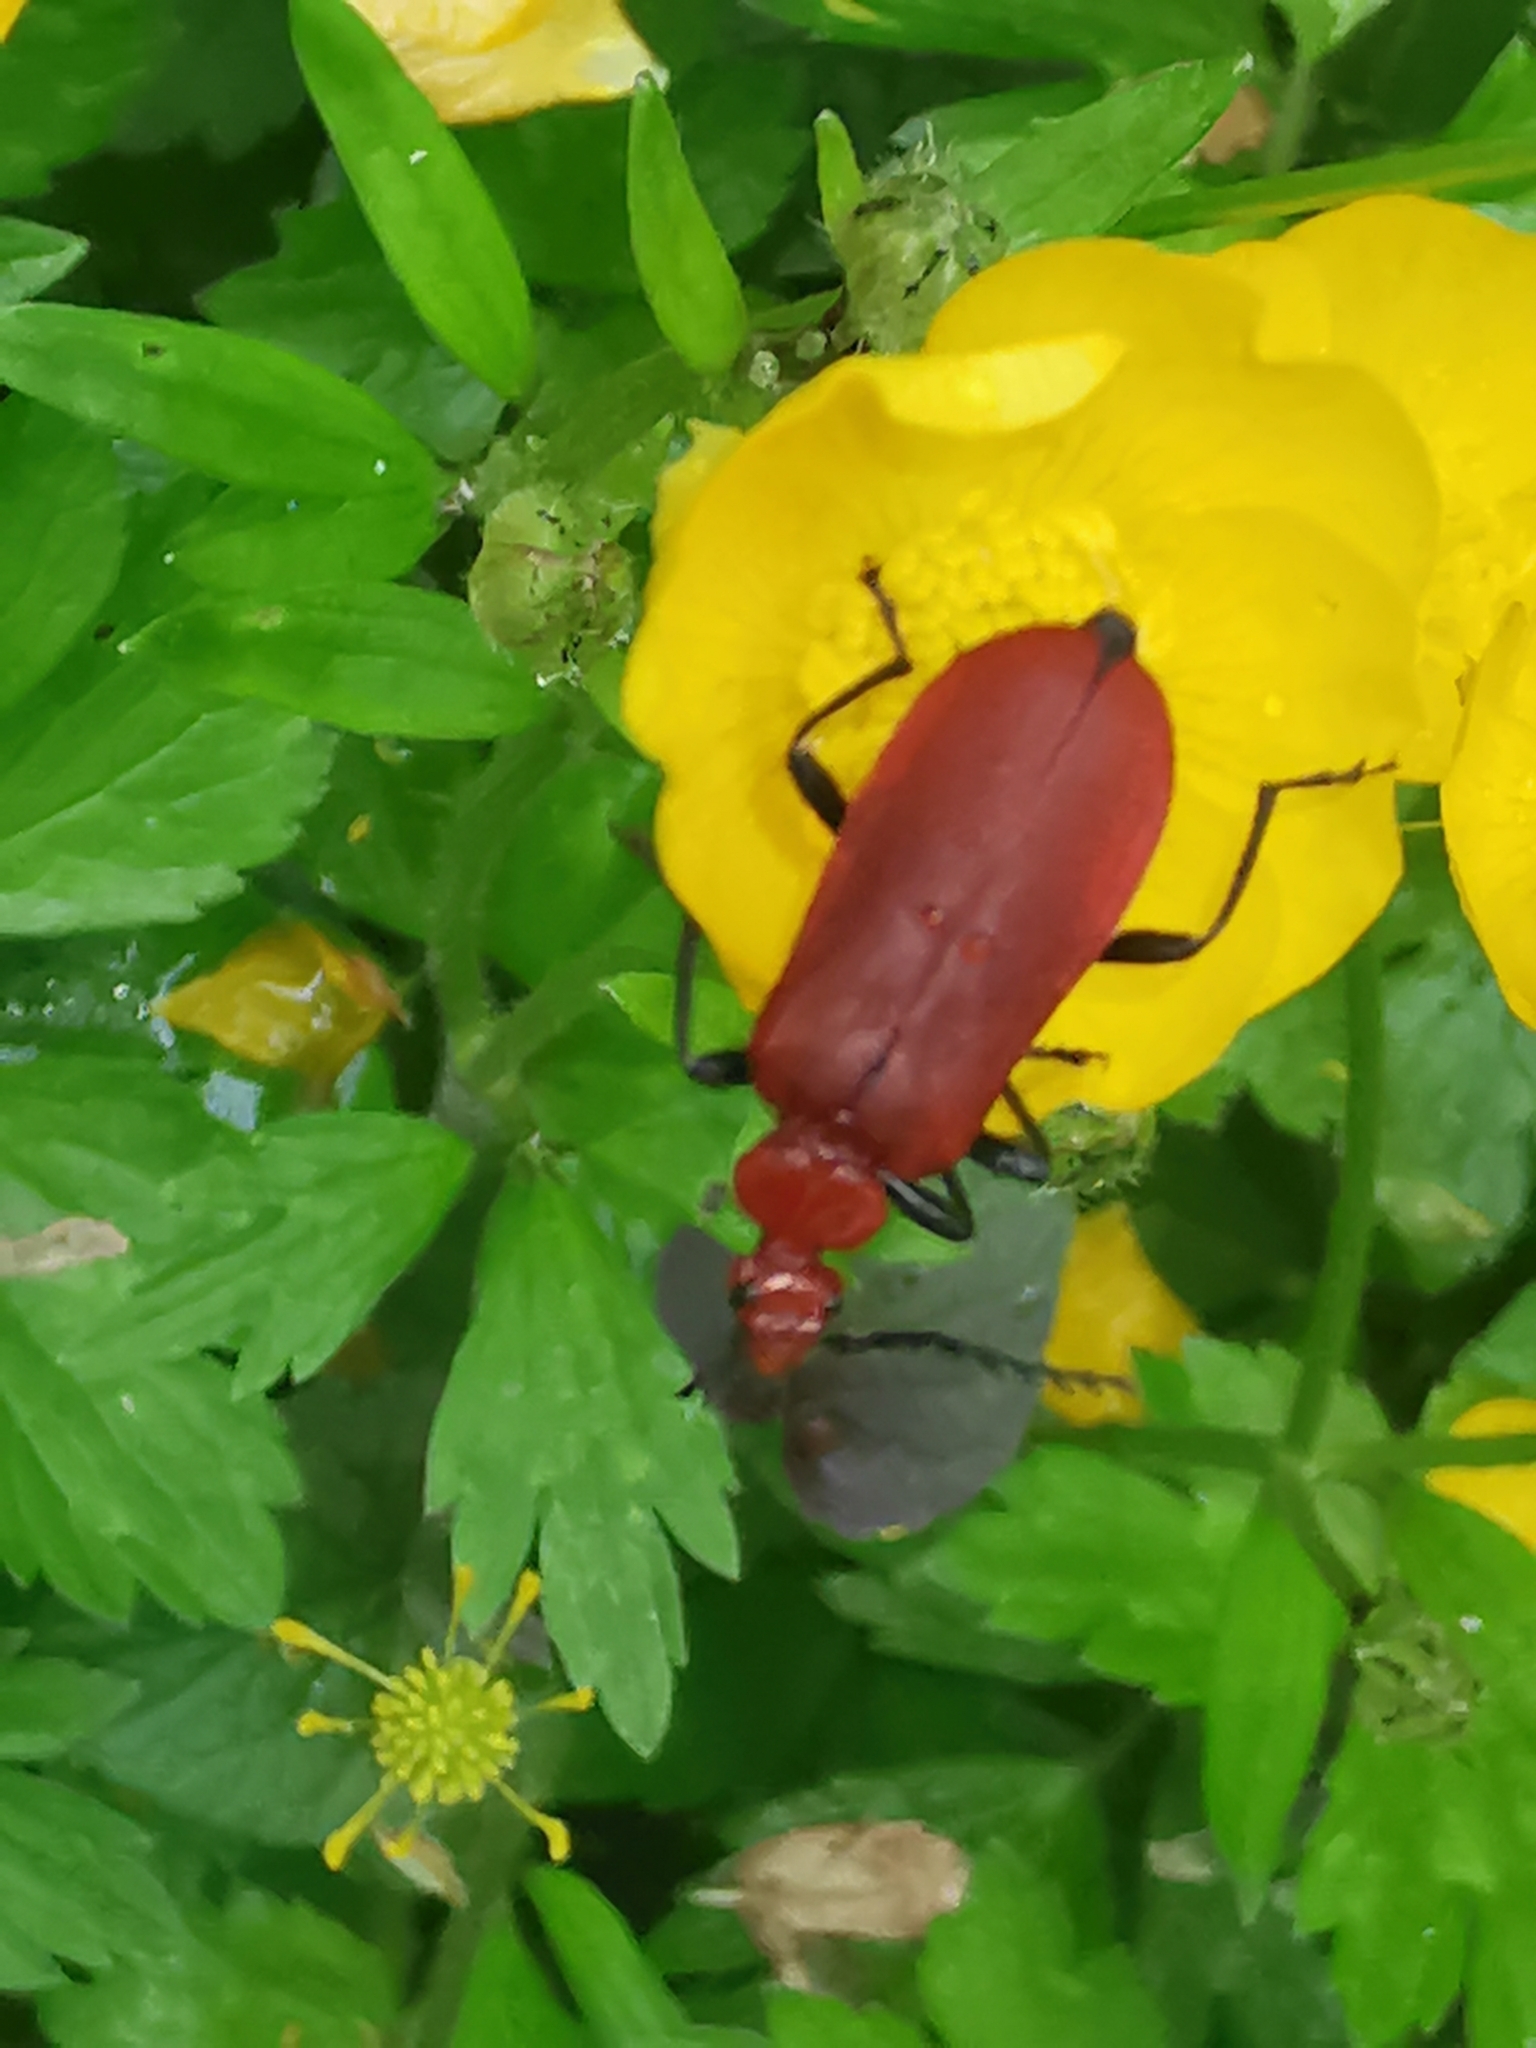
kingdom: Animalia
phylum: Arthropoda
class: Insecta
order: Coleoptera
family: Pyrochroidae
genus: Pyrochroa
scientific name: Pyrochroa serraticornis
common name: Red-headed cardinal beetle
